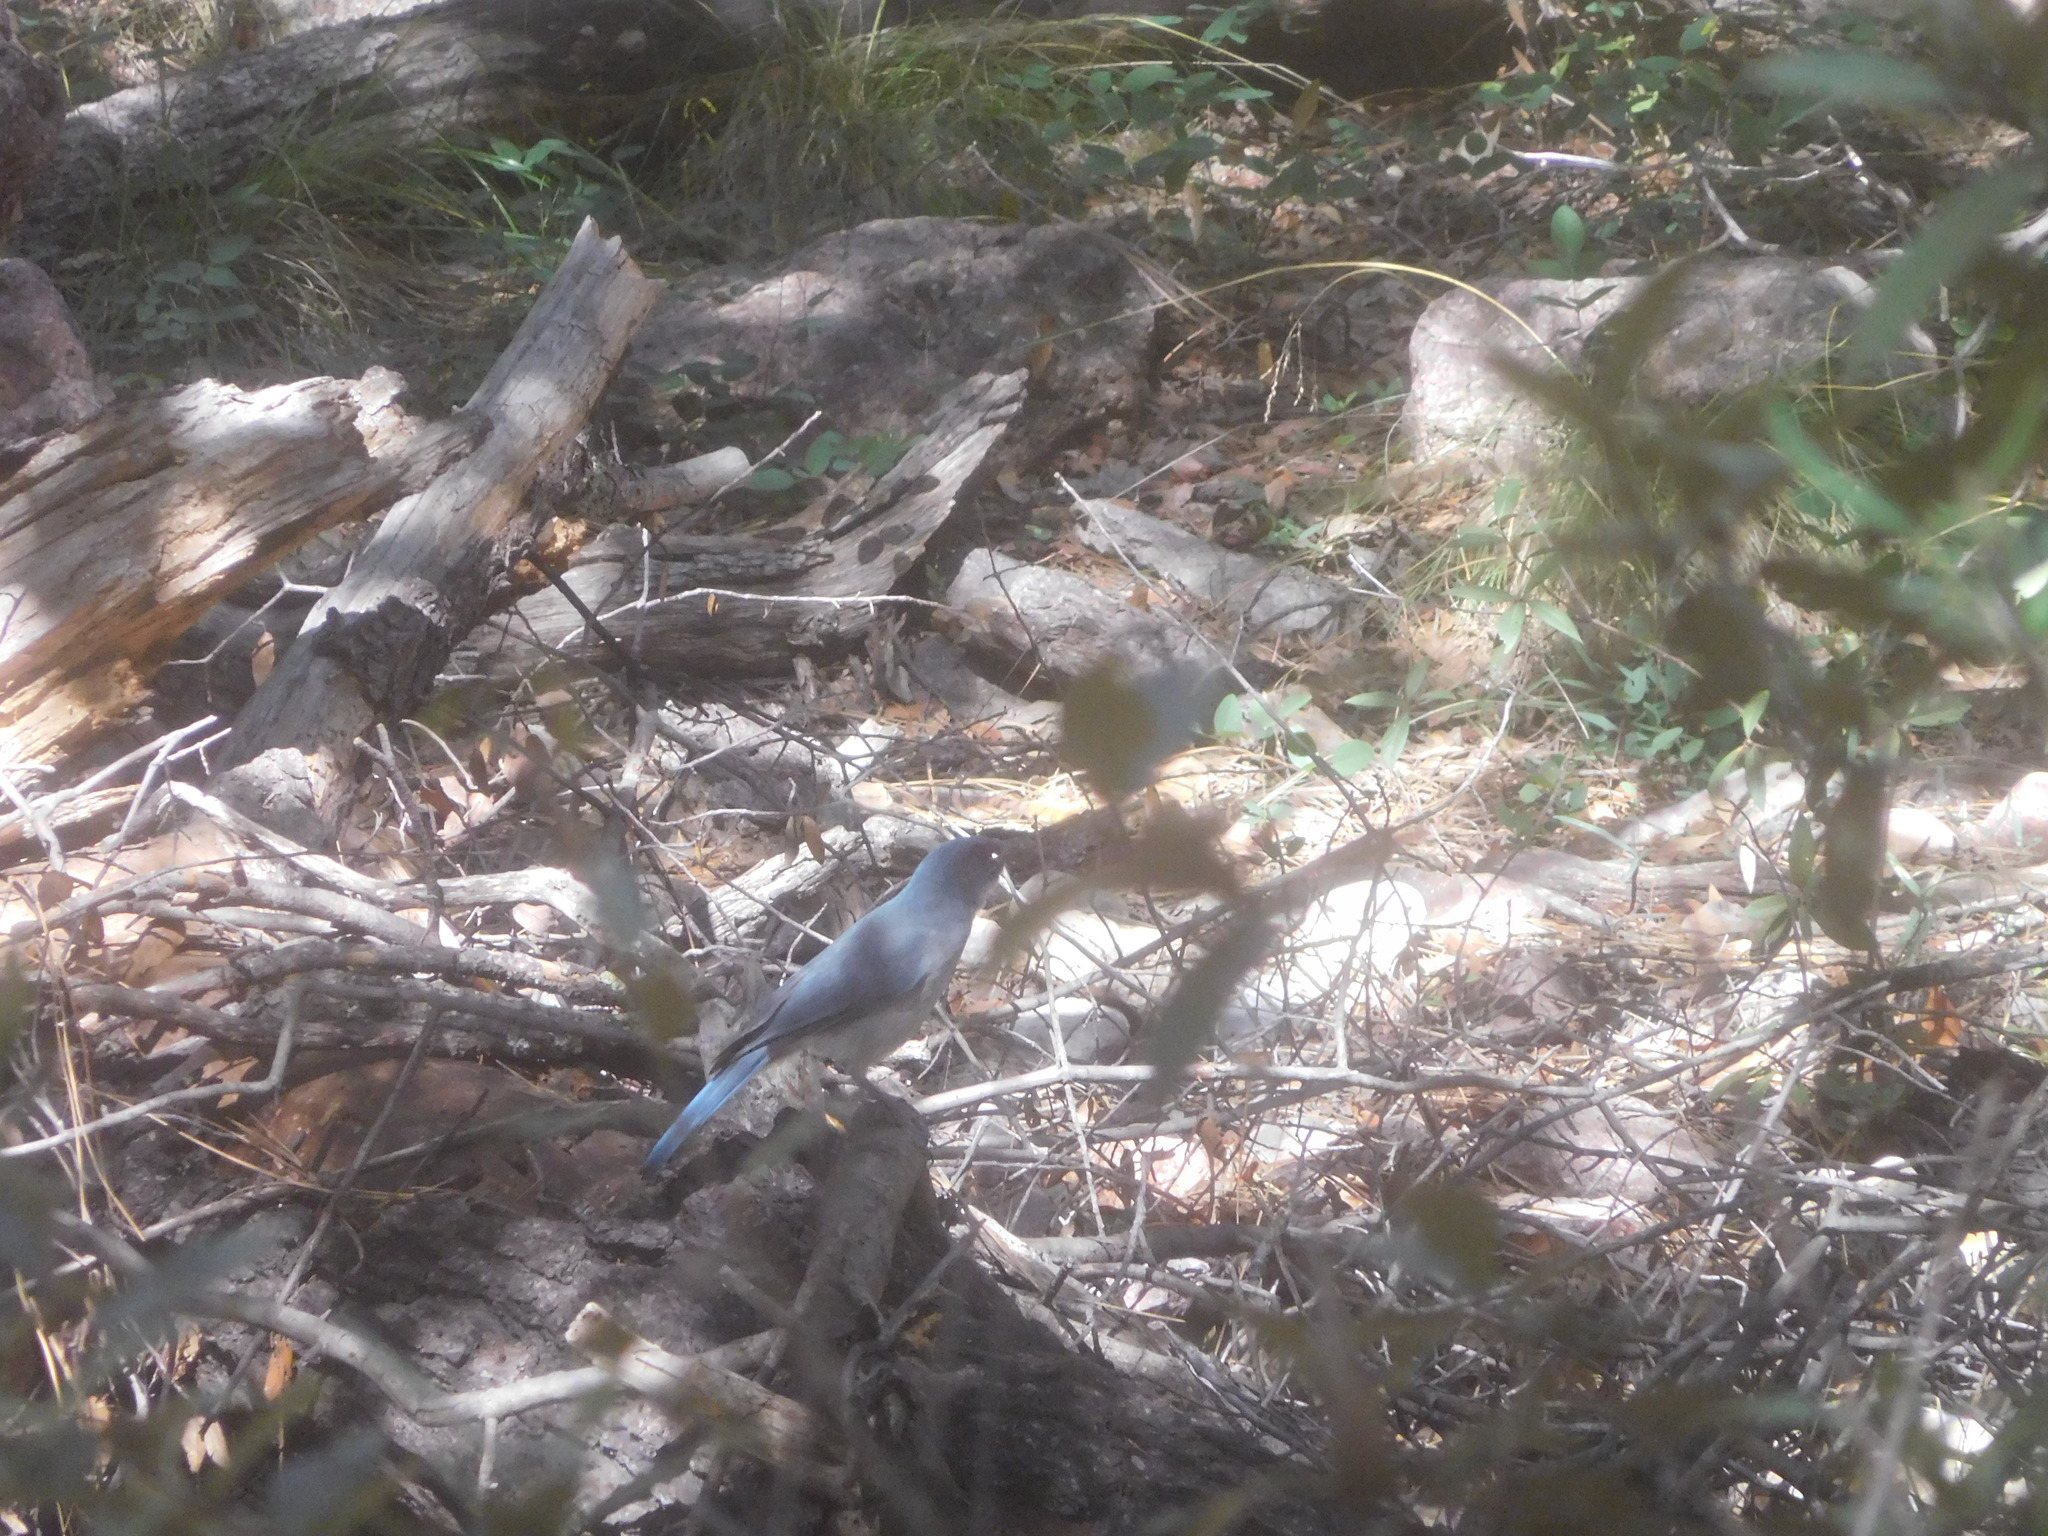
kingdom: Animalia
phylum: Chordata
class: Aves
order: Passeriformes
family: Corvidae
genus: Aphelocoma
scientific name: Aphelocoma wollweberi
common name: Mexican jay
